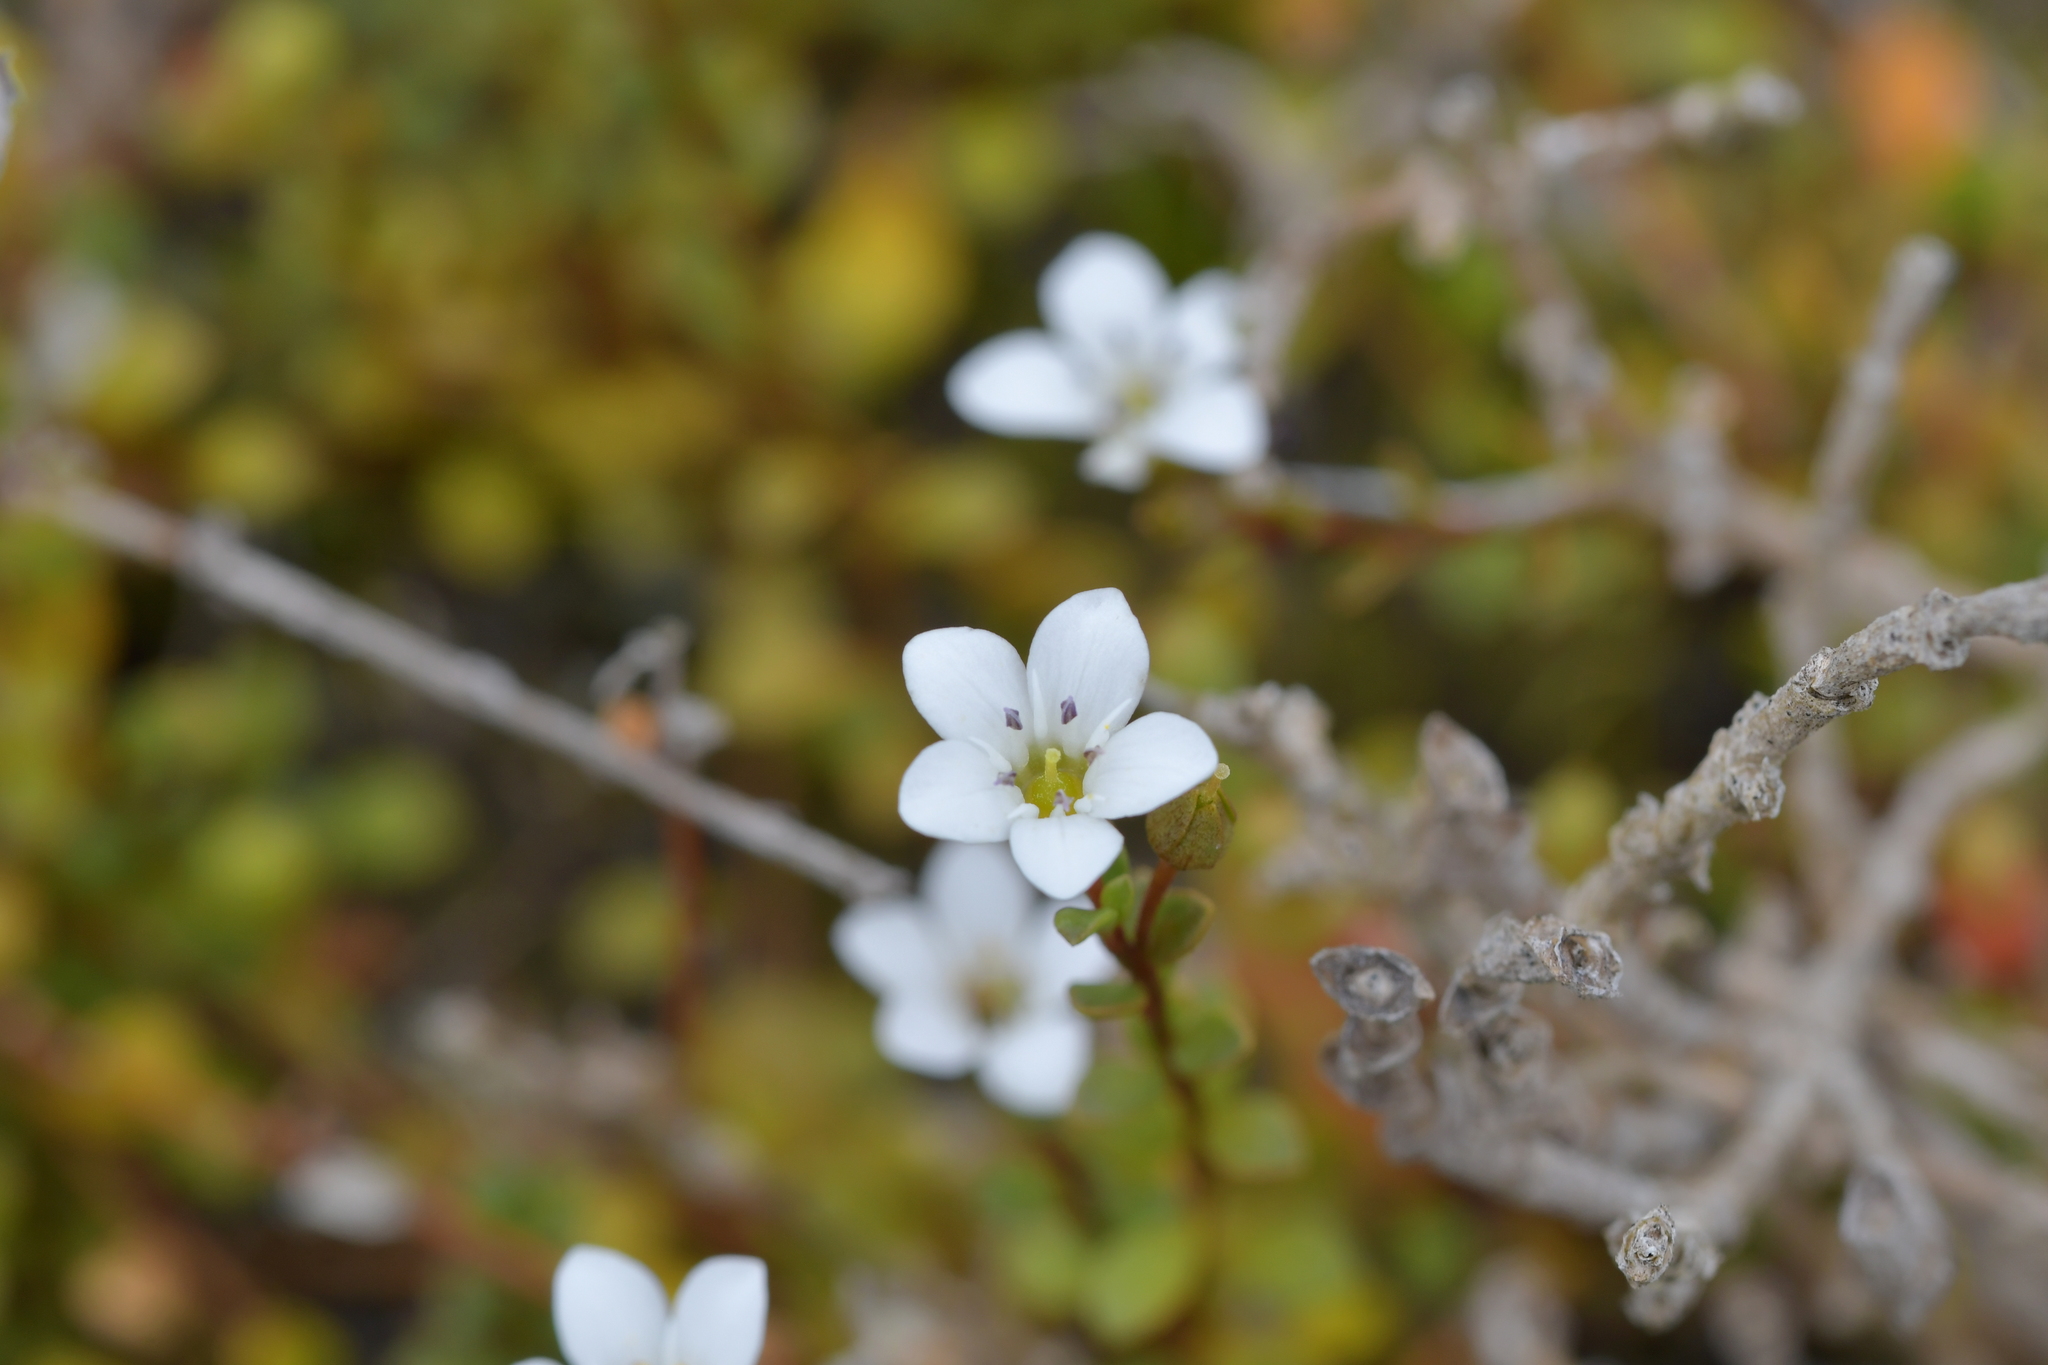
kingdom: Plantae
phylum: Tracheophyta
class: Magnoliopsida
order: Ericales
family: Primulaceae
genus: Samolus
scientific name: Samolus repens
